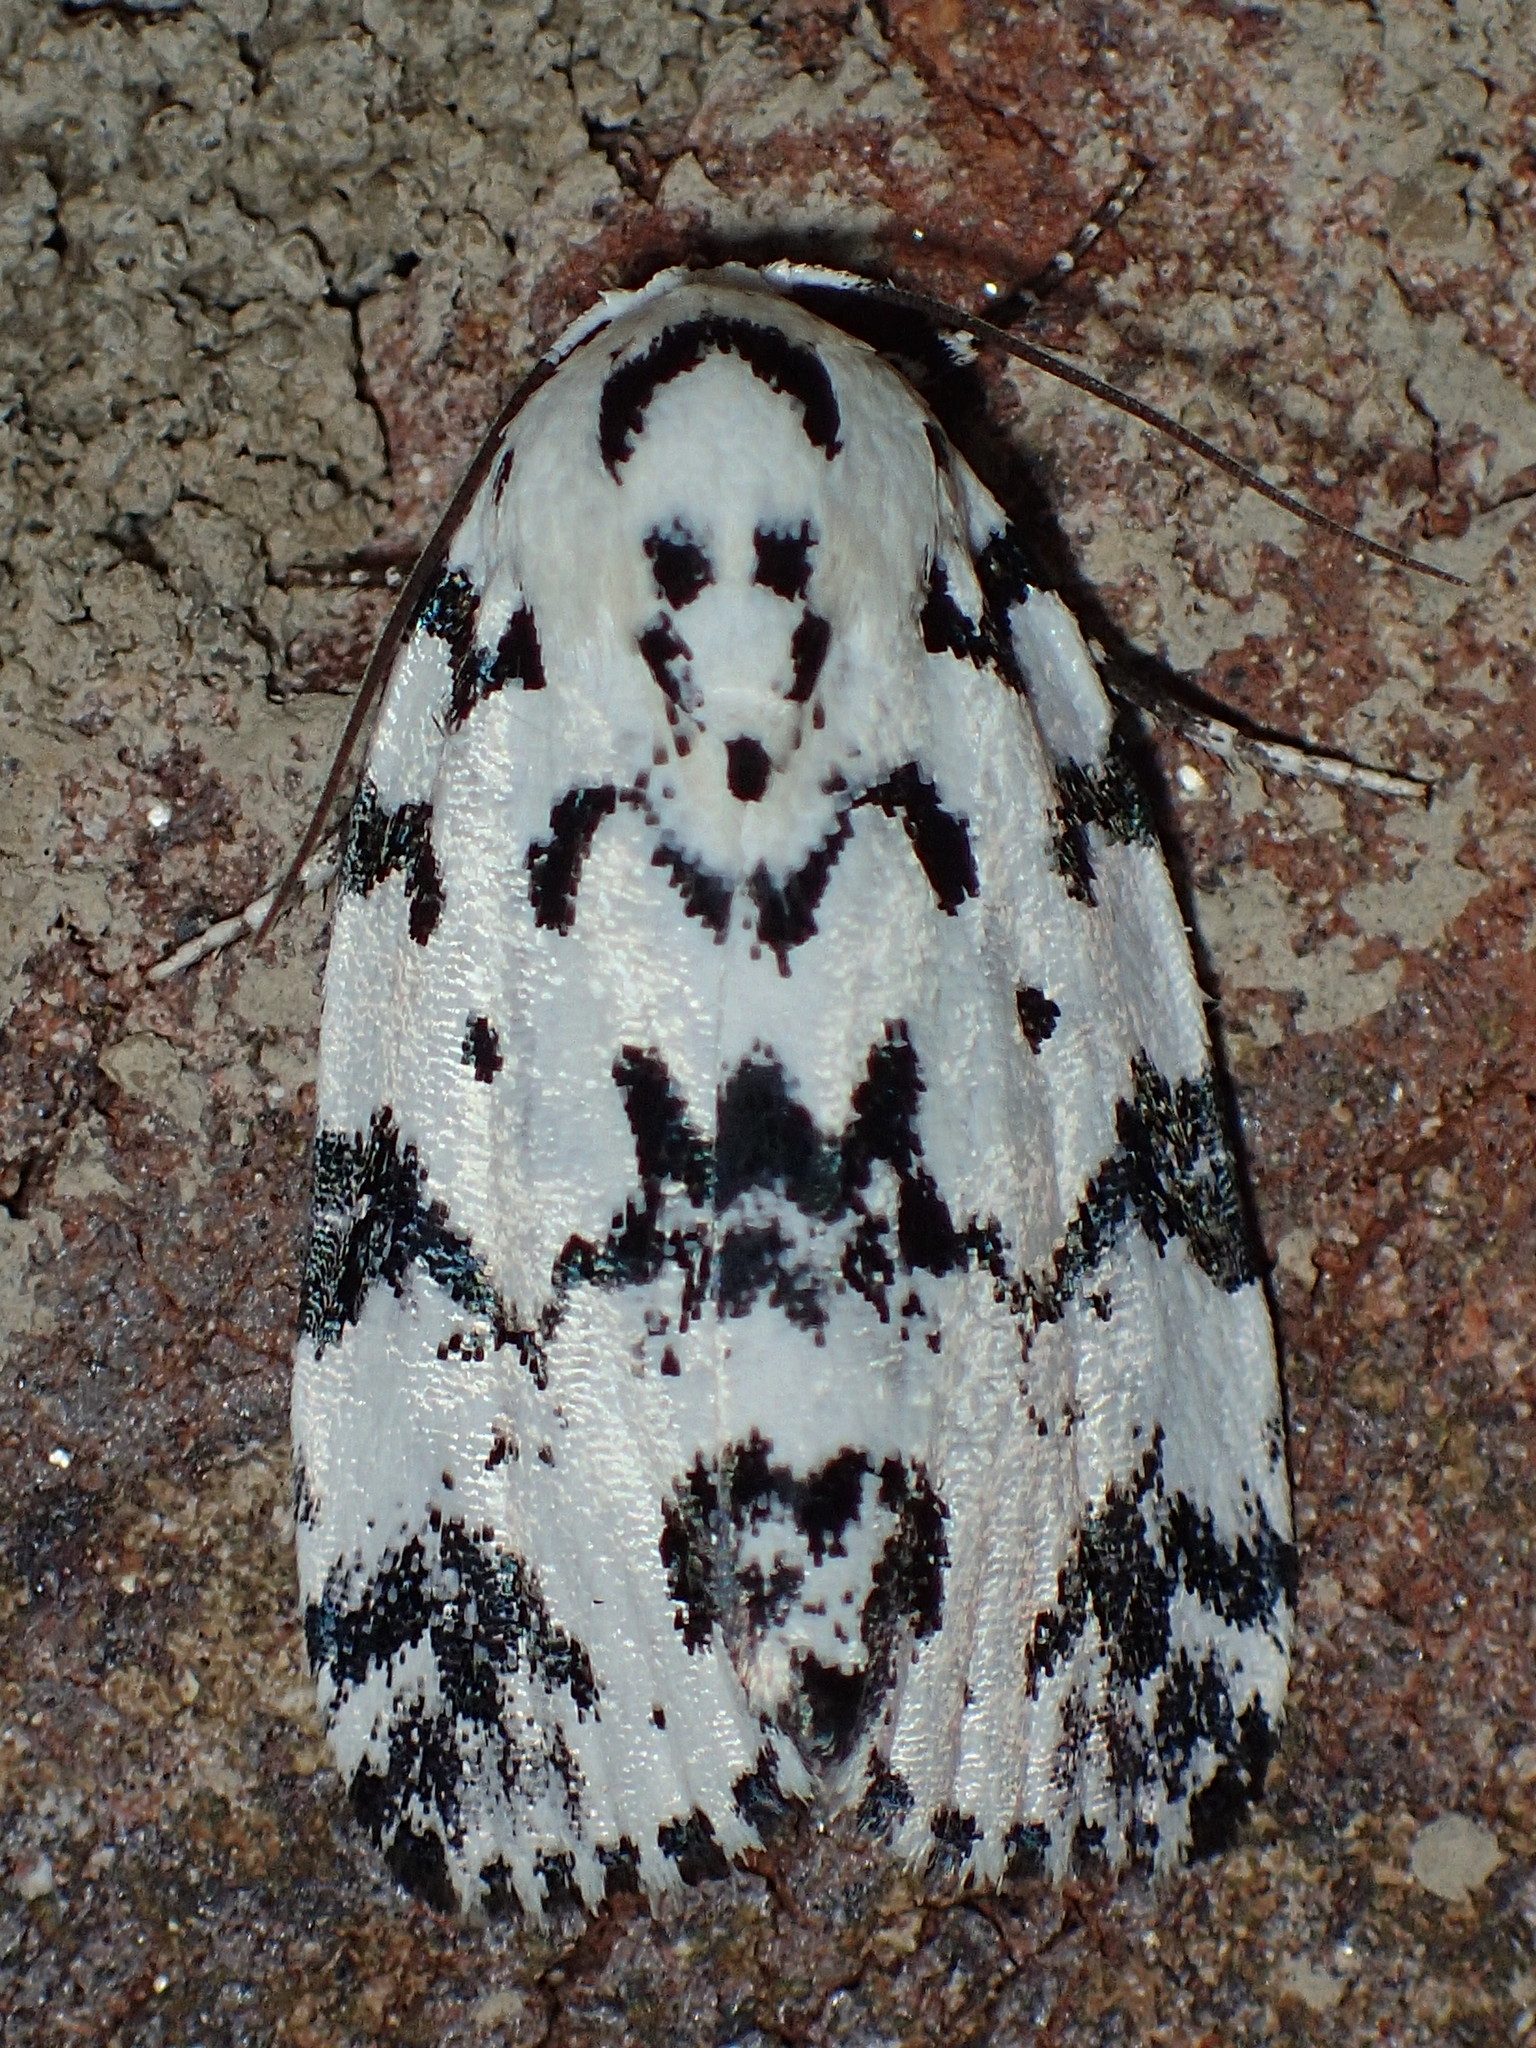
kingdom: Animalia
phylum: Arthropoda
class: Insecta
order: Lepidoptera
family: Noctuidae
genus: Polygrammate
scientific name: Polygrammate hebraeicum
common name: Hebrew moth
